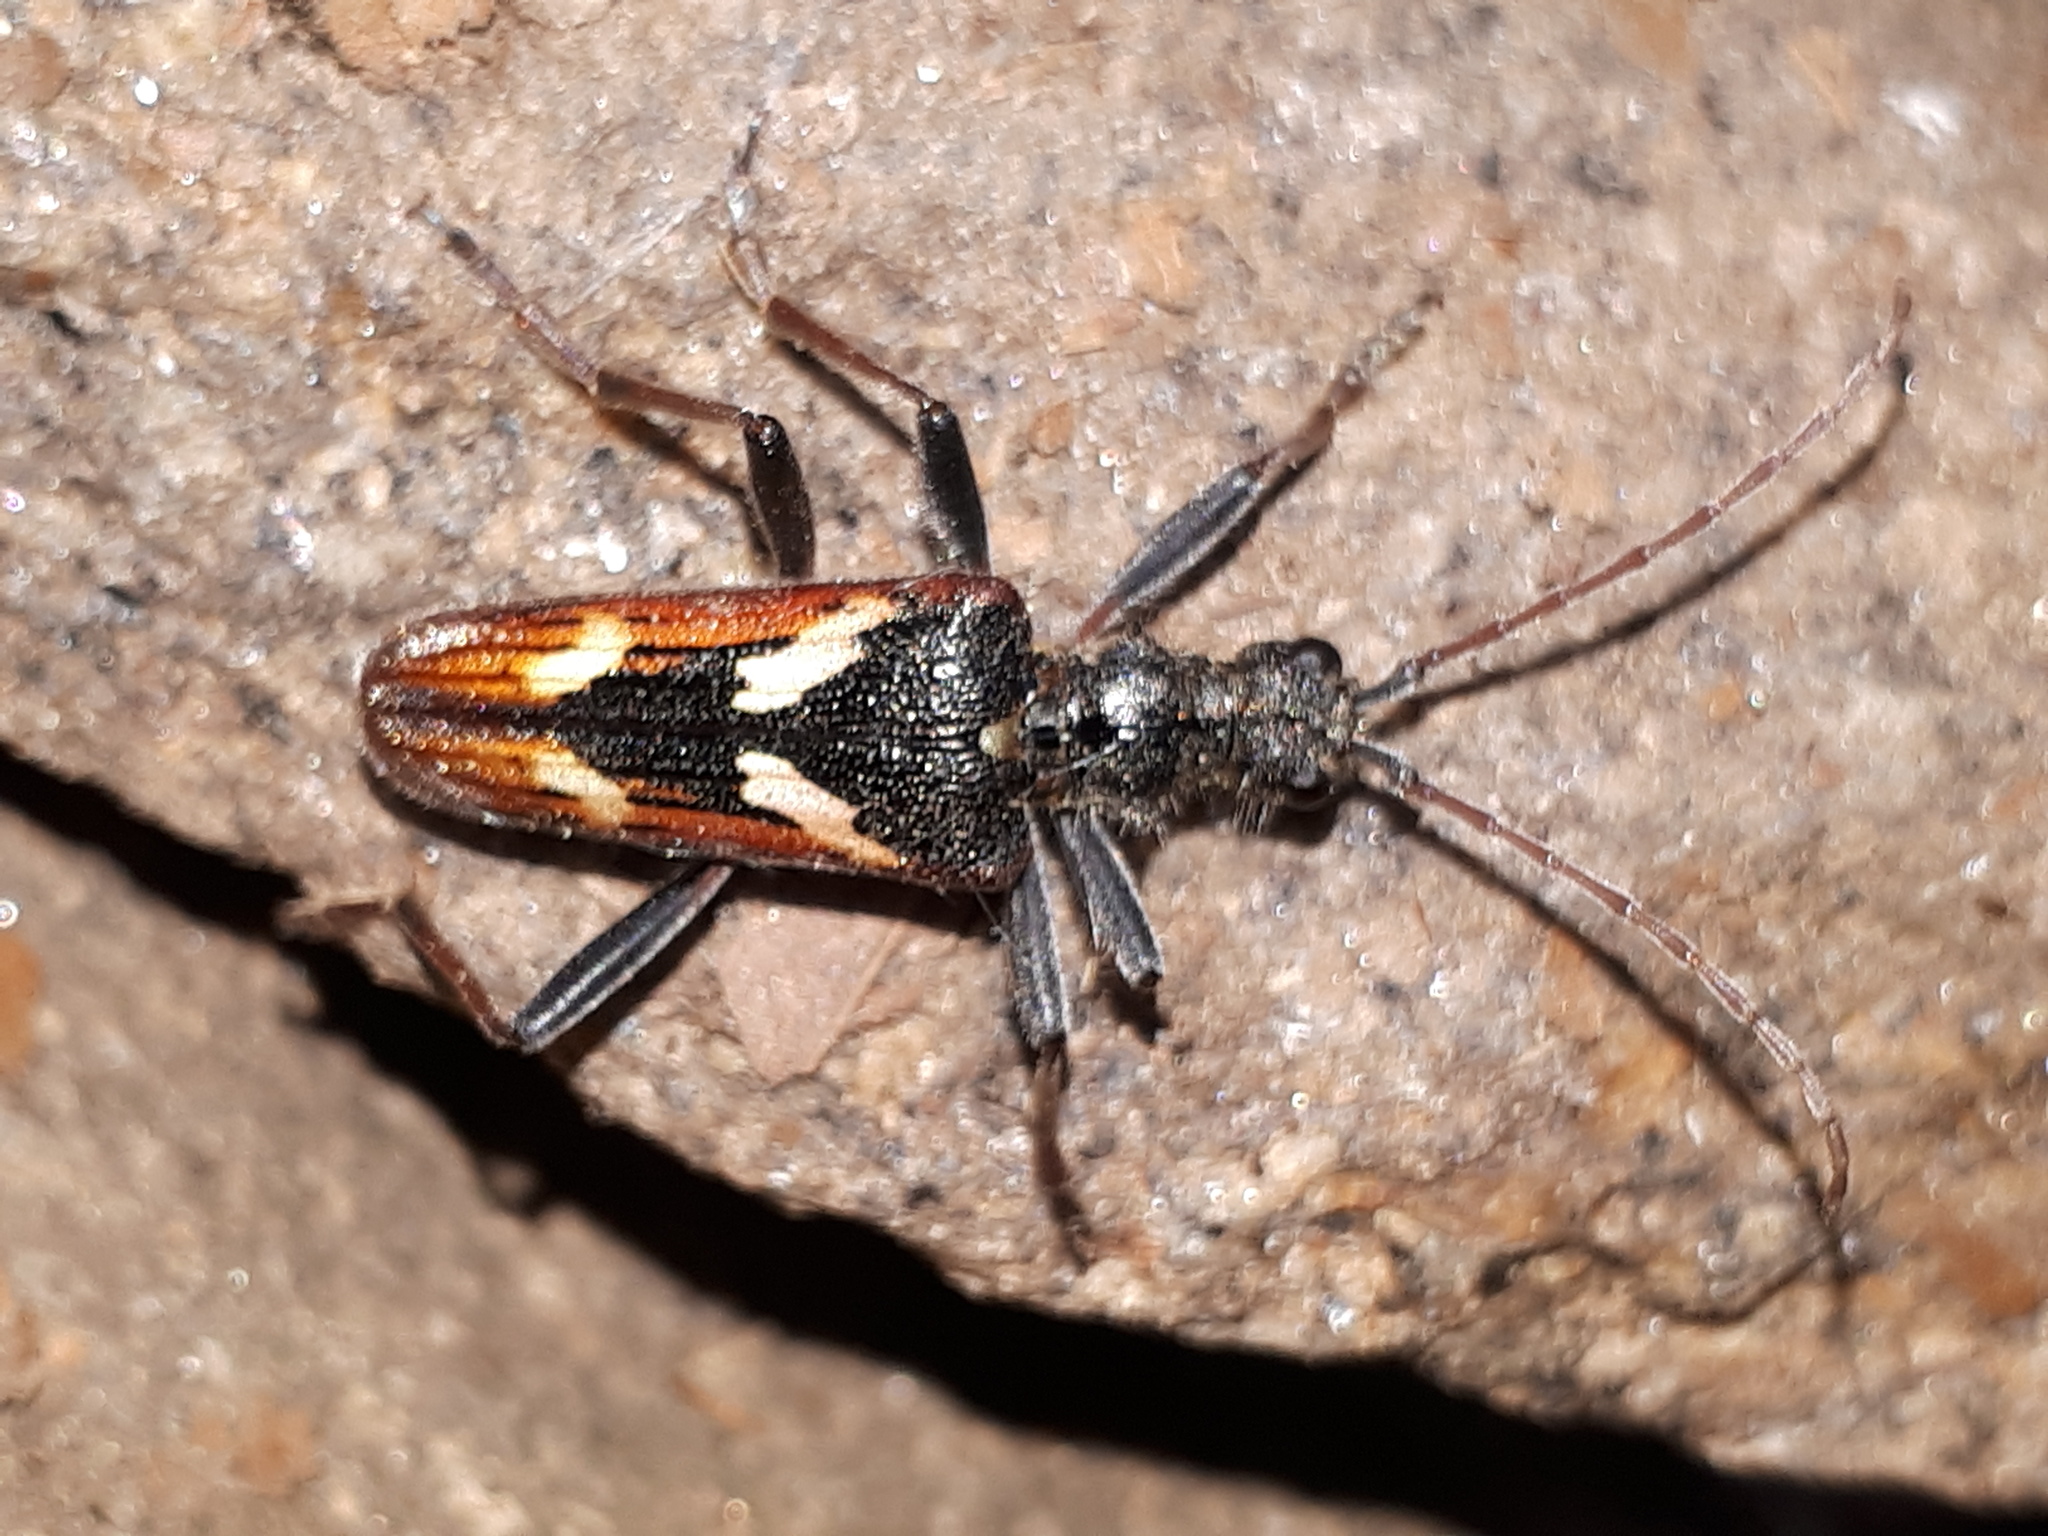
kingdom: Animalia
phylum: Arthropoda
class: Insecta
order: Coleoptera
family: Cerambycidae
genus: Rhagium
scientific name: Rhagium bifasciatum
